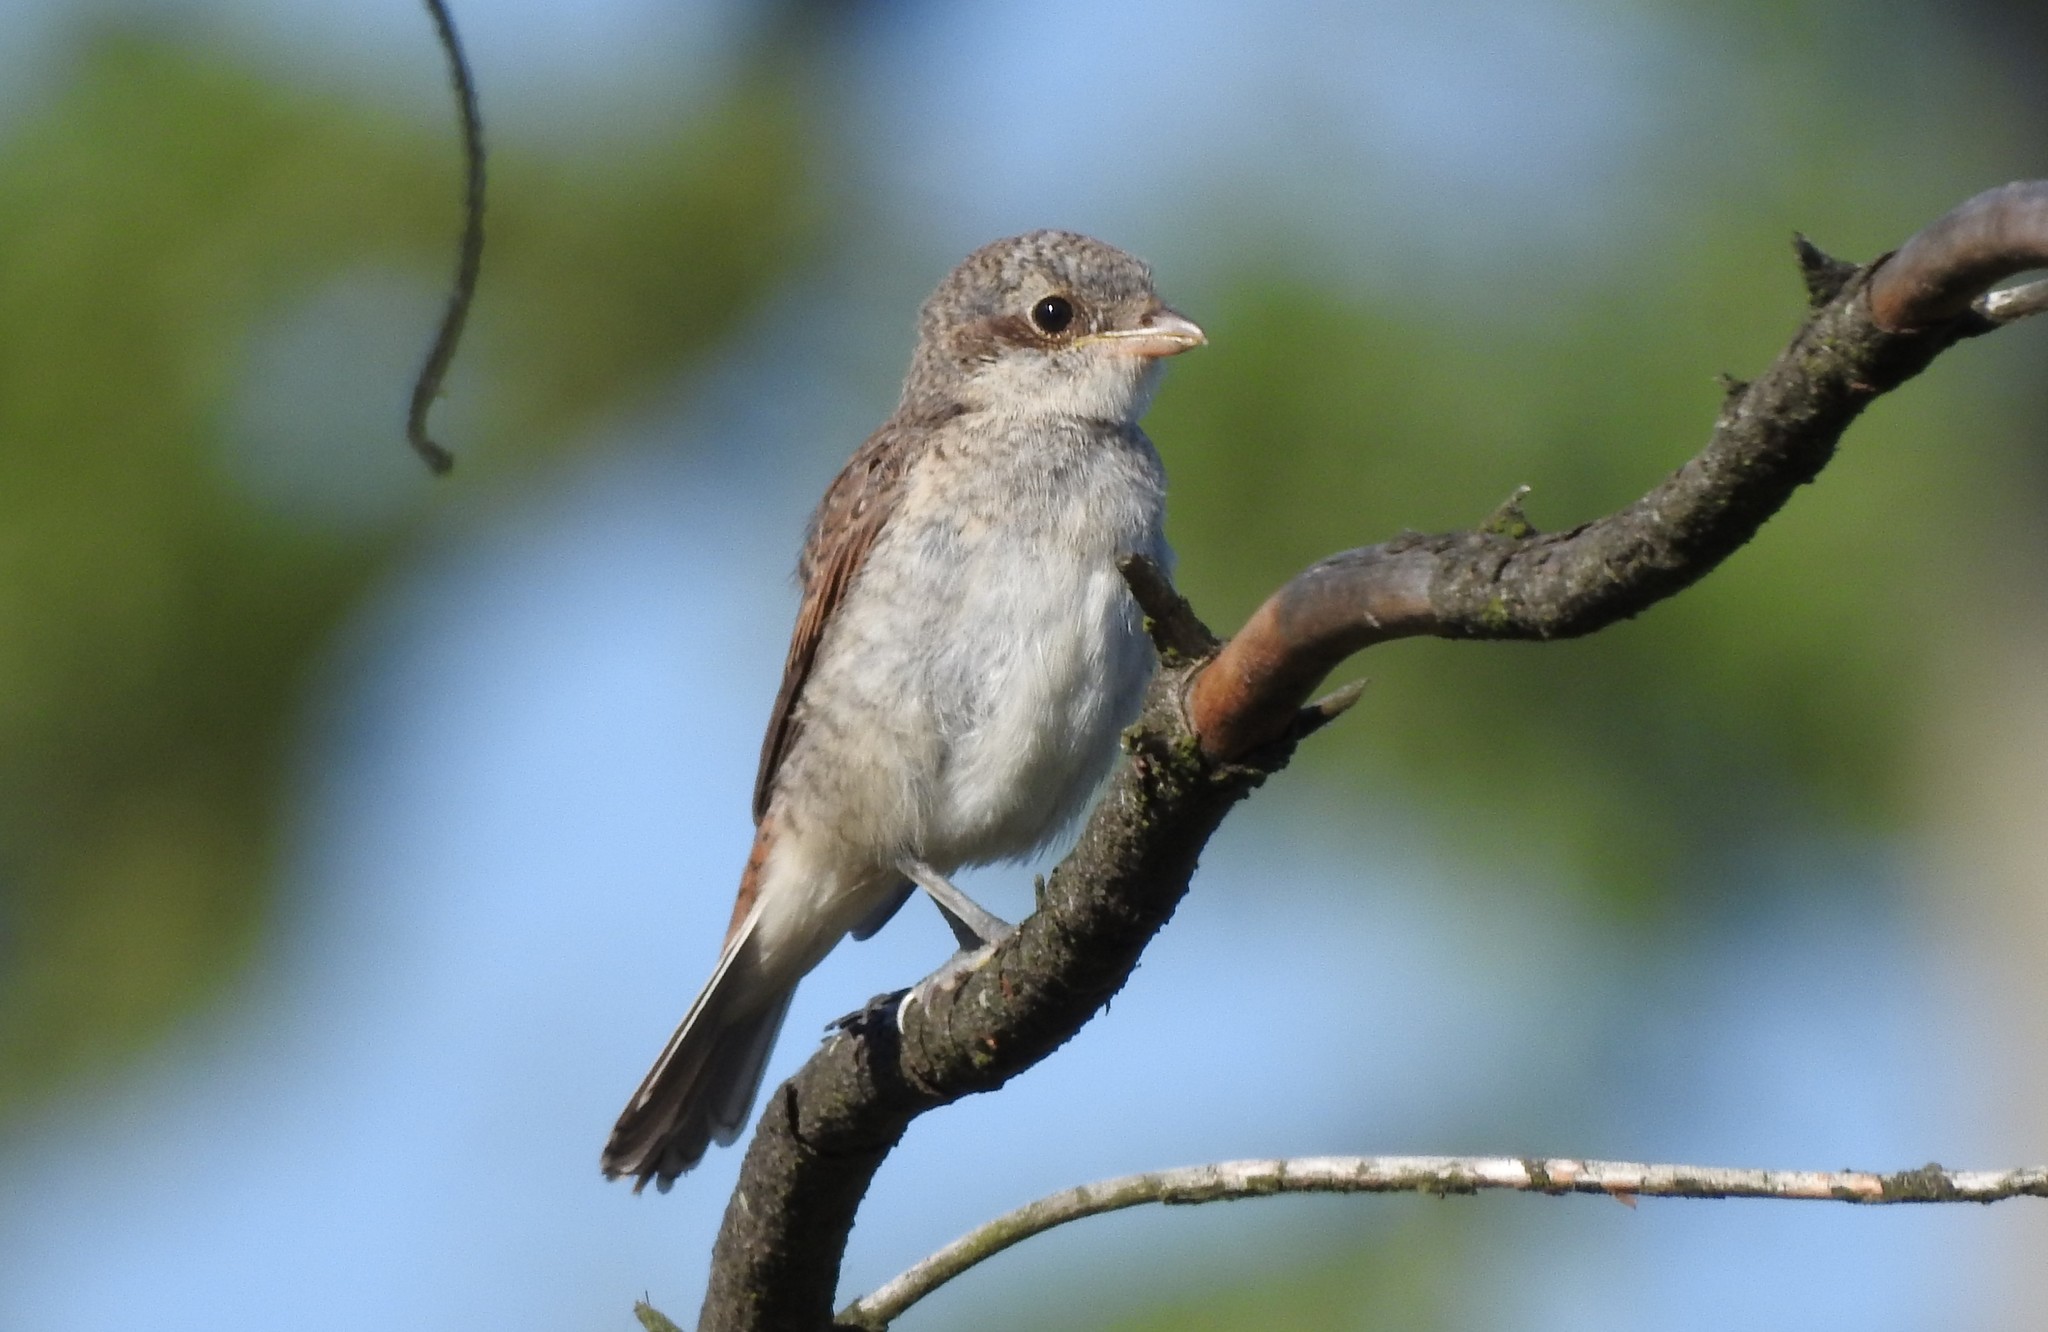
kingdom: Animalia
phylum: Chordata
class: Aves
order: Passeriformes
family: Laniidae
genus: Lanius
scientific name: Lanius collurio
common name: Red-backed shrike
